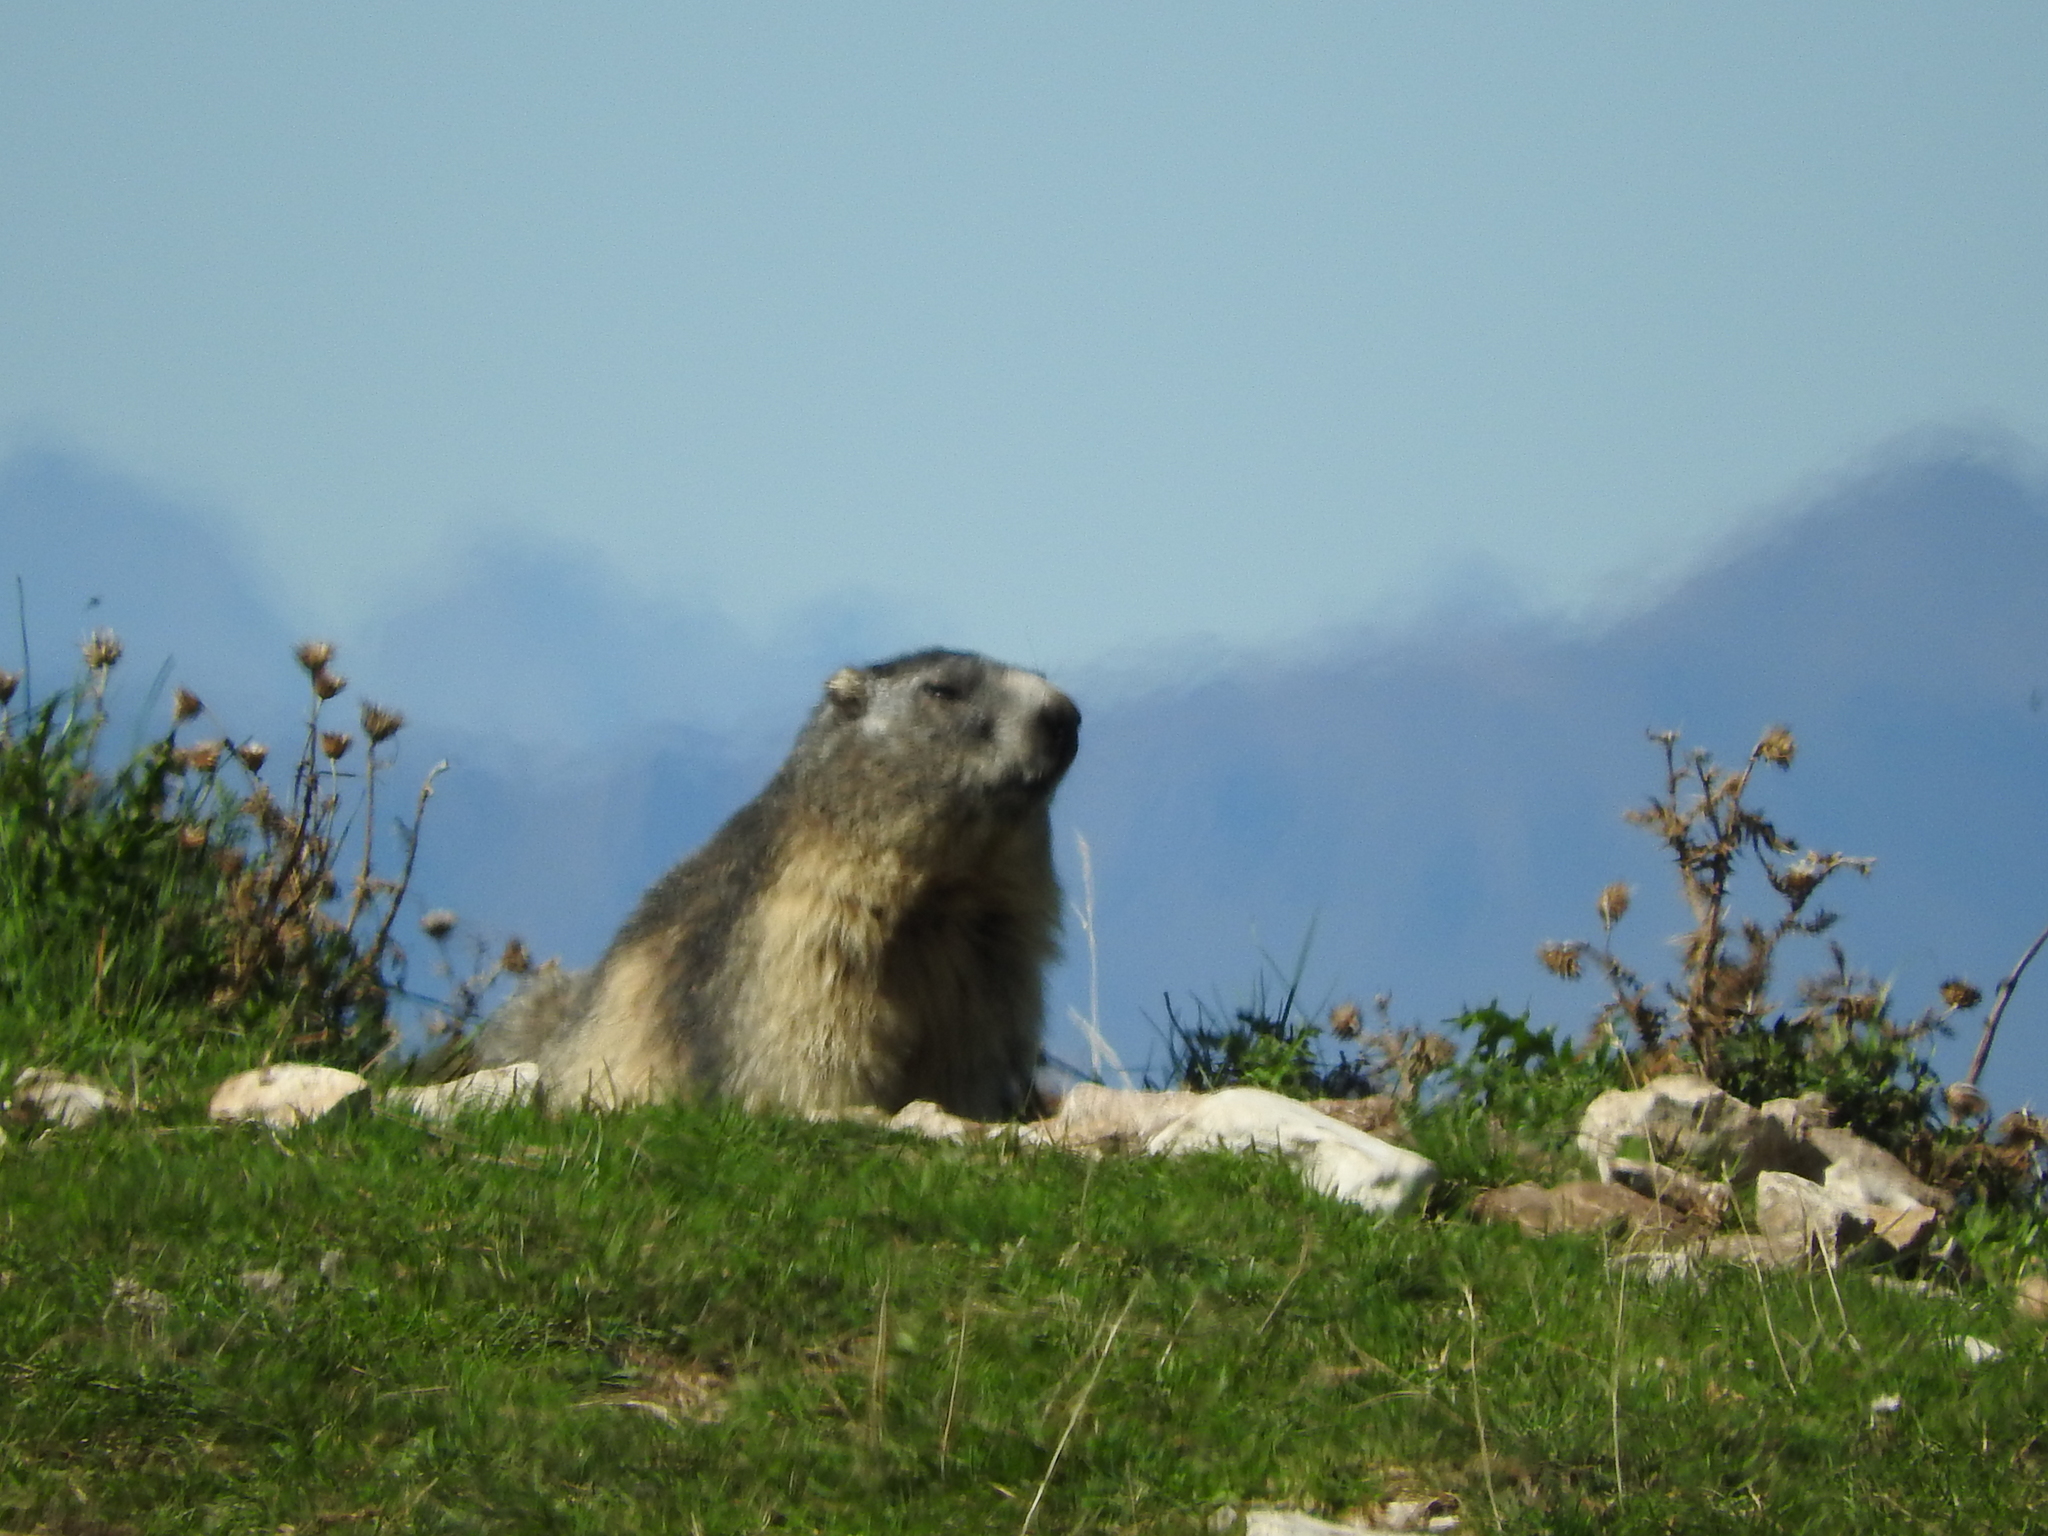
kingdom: Animalia
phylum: Chordata
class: Mammalia
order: Rodentia
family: Sciuridae
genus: Marmota
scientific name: Marmota marmota
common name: Alpine marmot
